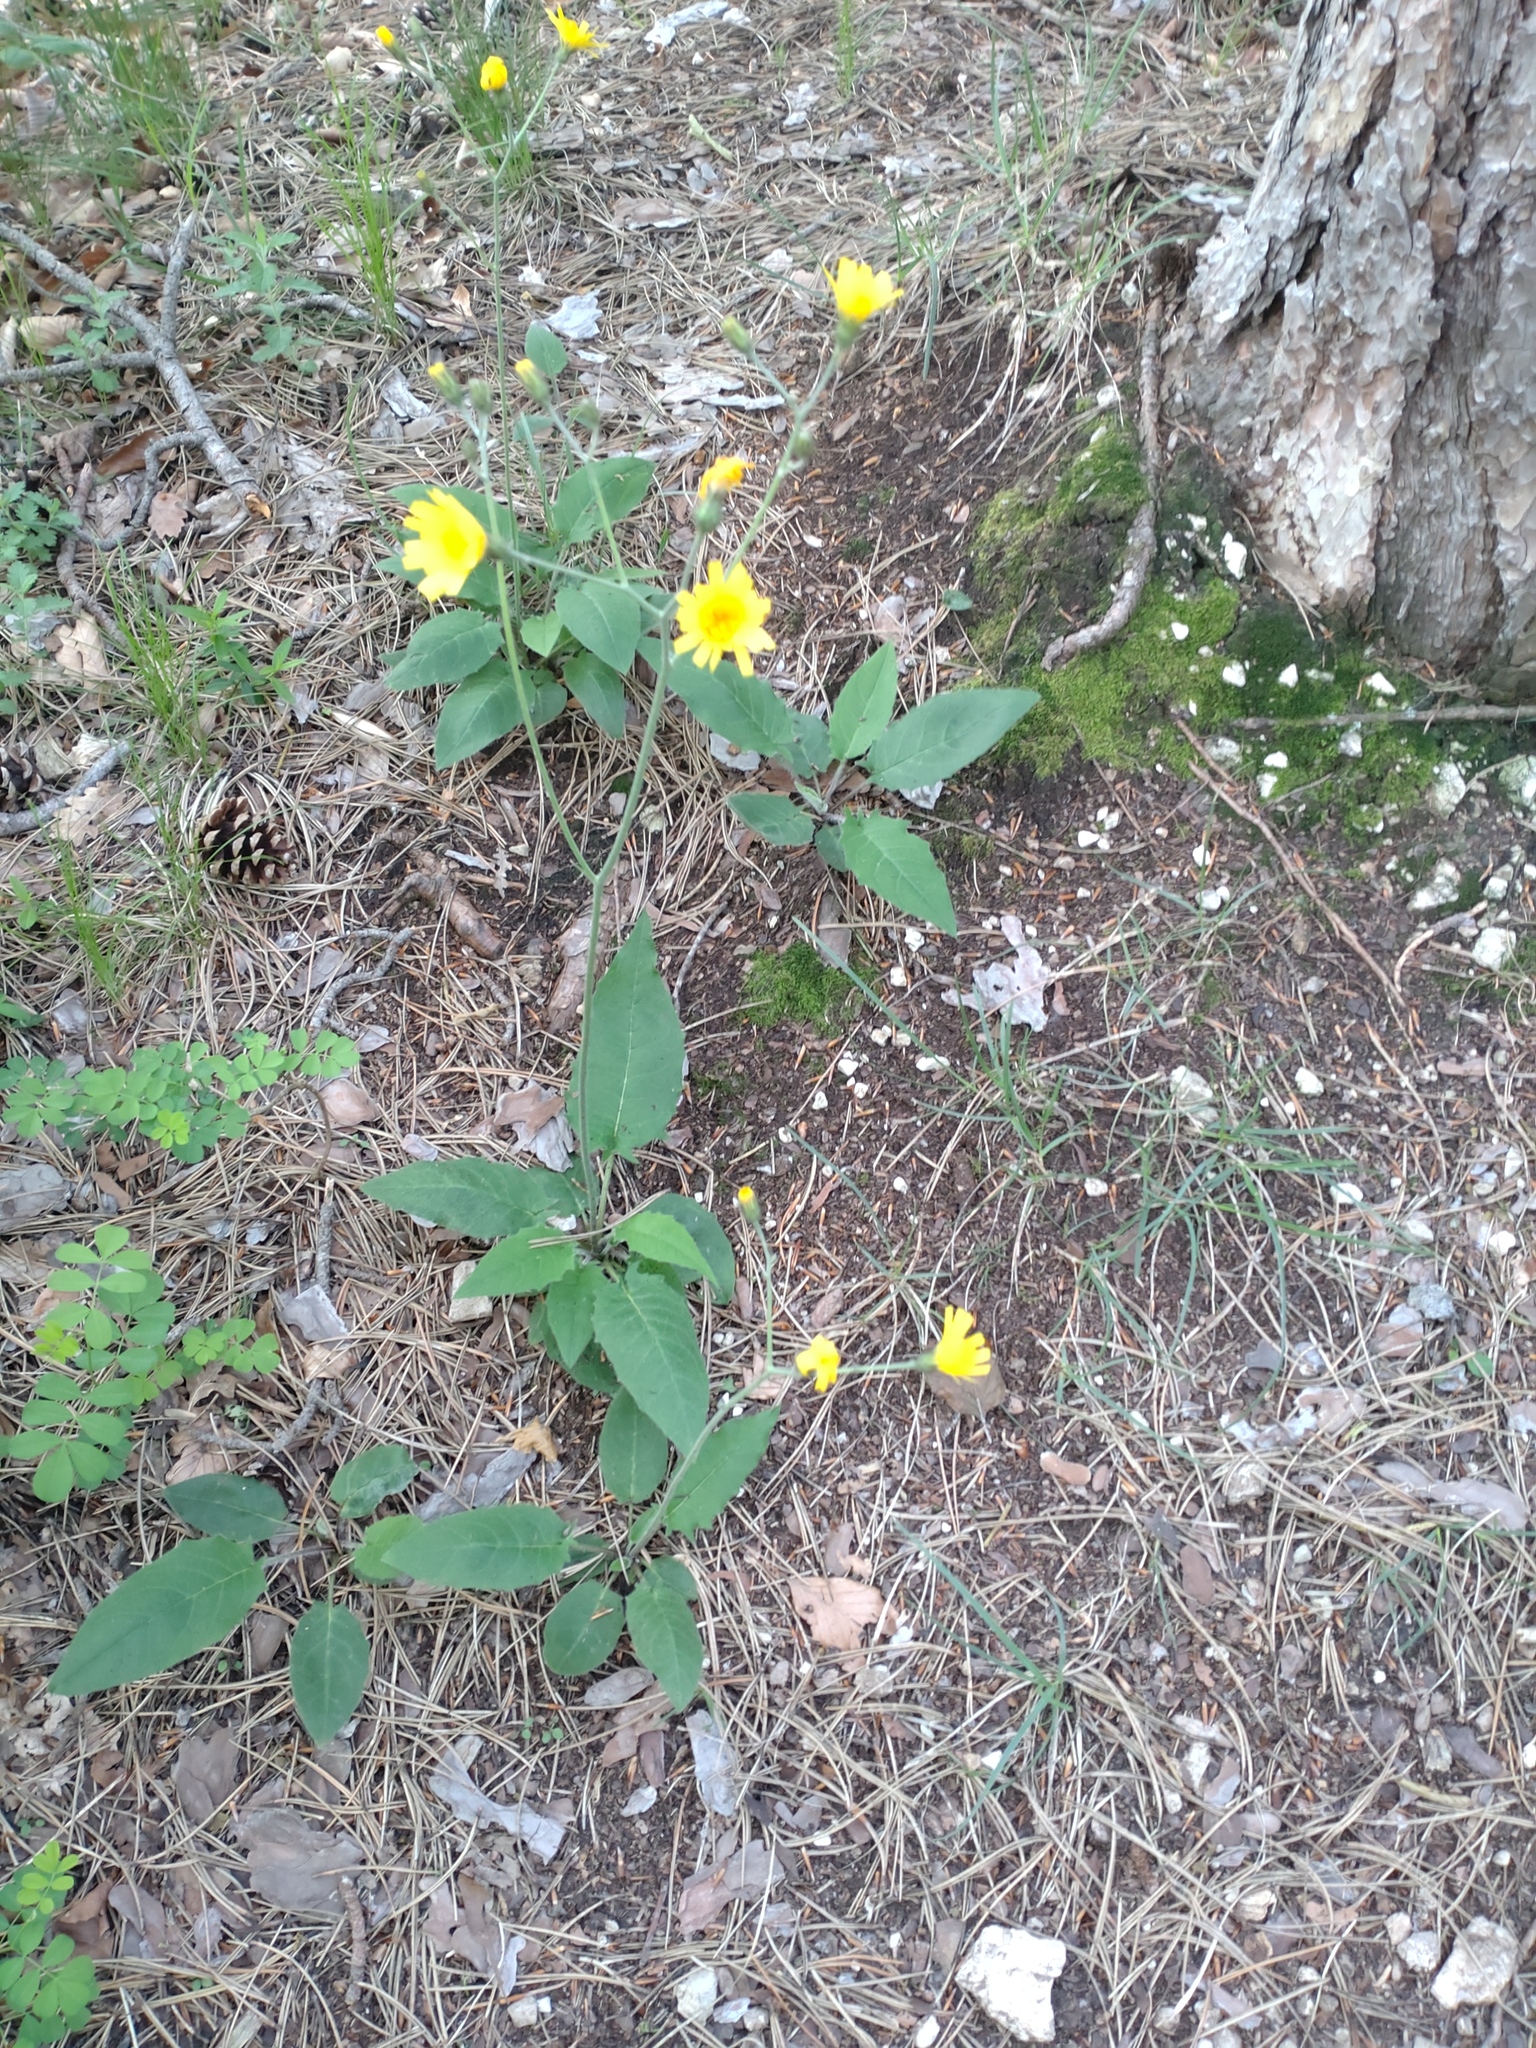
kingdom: Plantae
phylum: Tracheophyta
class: Magnoliopsida
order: Asterales
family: Asteraceae
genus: Hieracium
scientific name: Hieracium murorum
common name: Wall hawkweed
